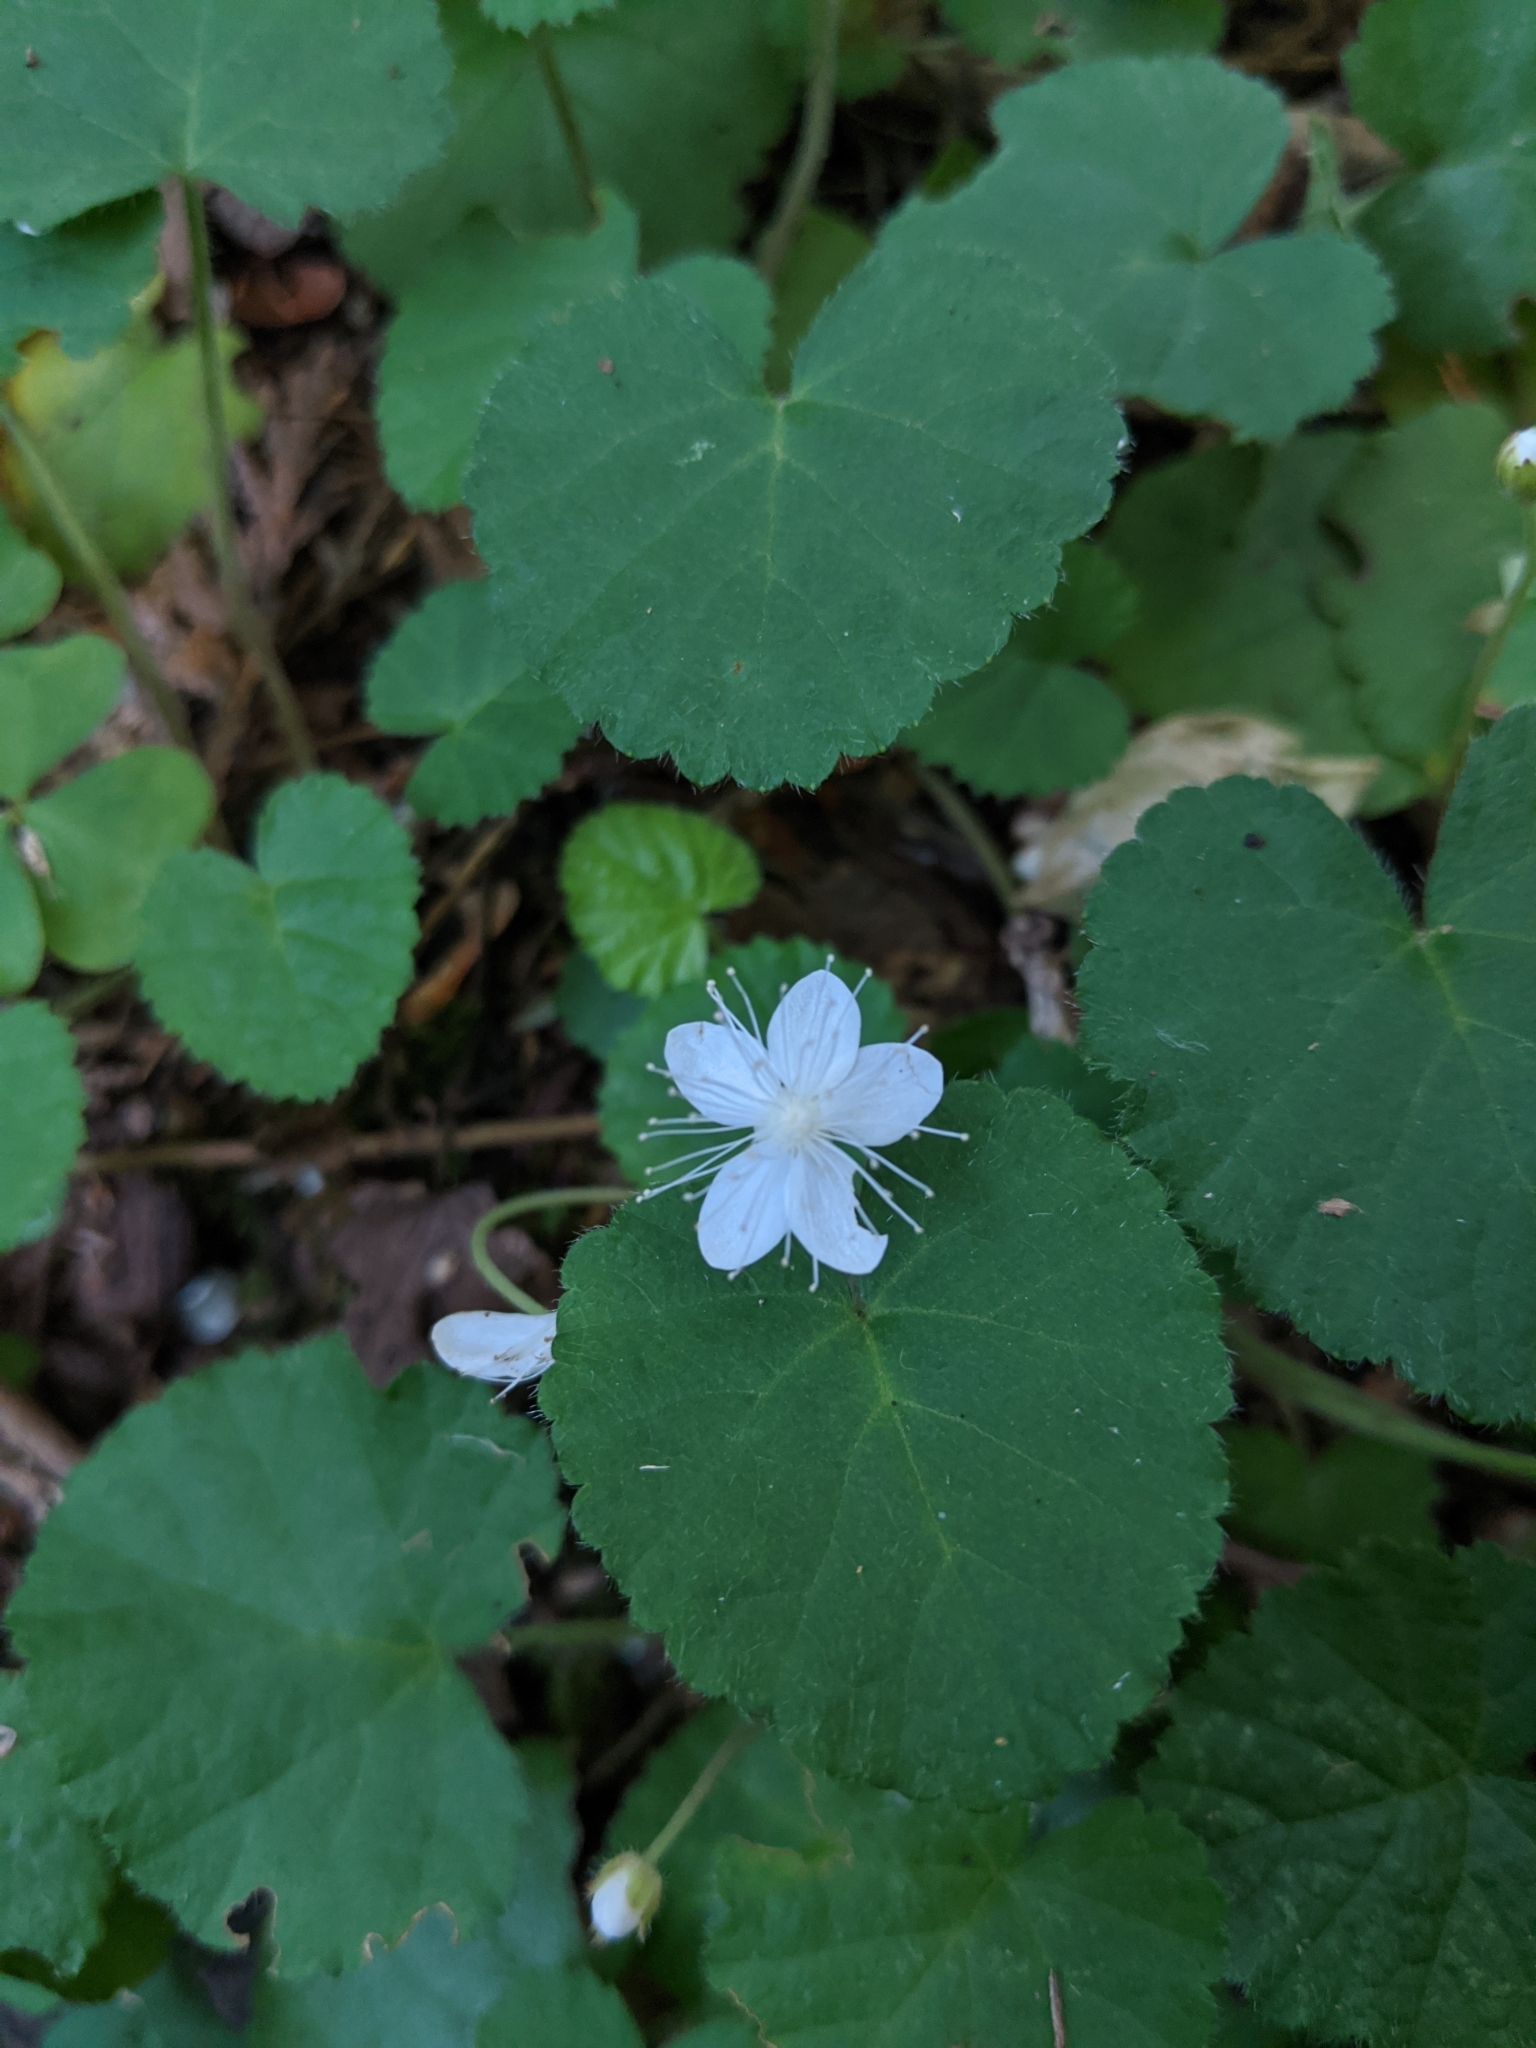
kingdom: Plantae
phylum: Tracheophyta
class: Magnoliopsida
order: Rosales
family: Rosaceae
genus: Dalibarda
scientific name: Dalibarda repens
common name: Dewdrop
